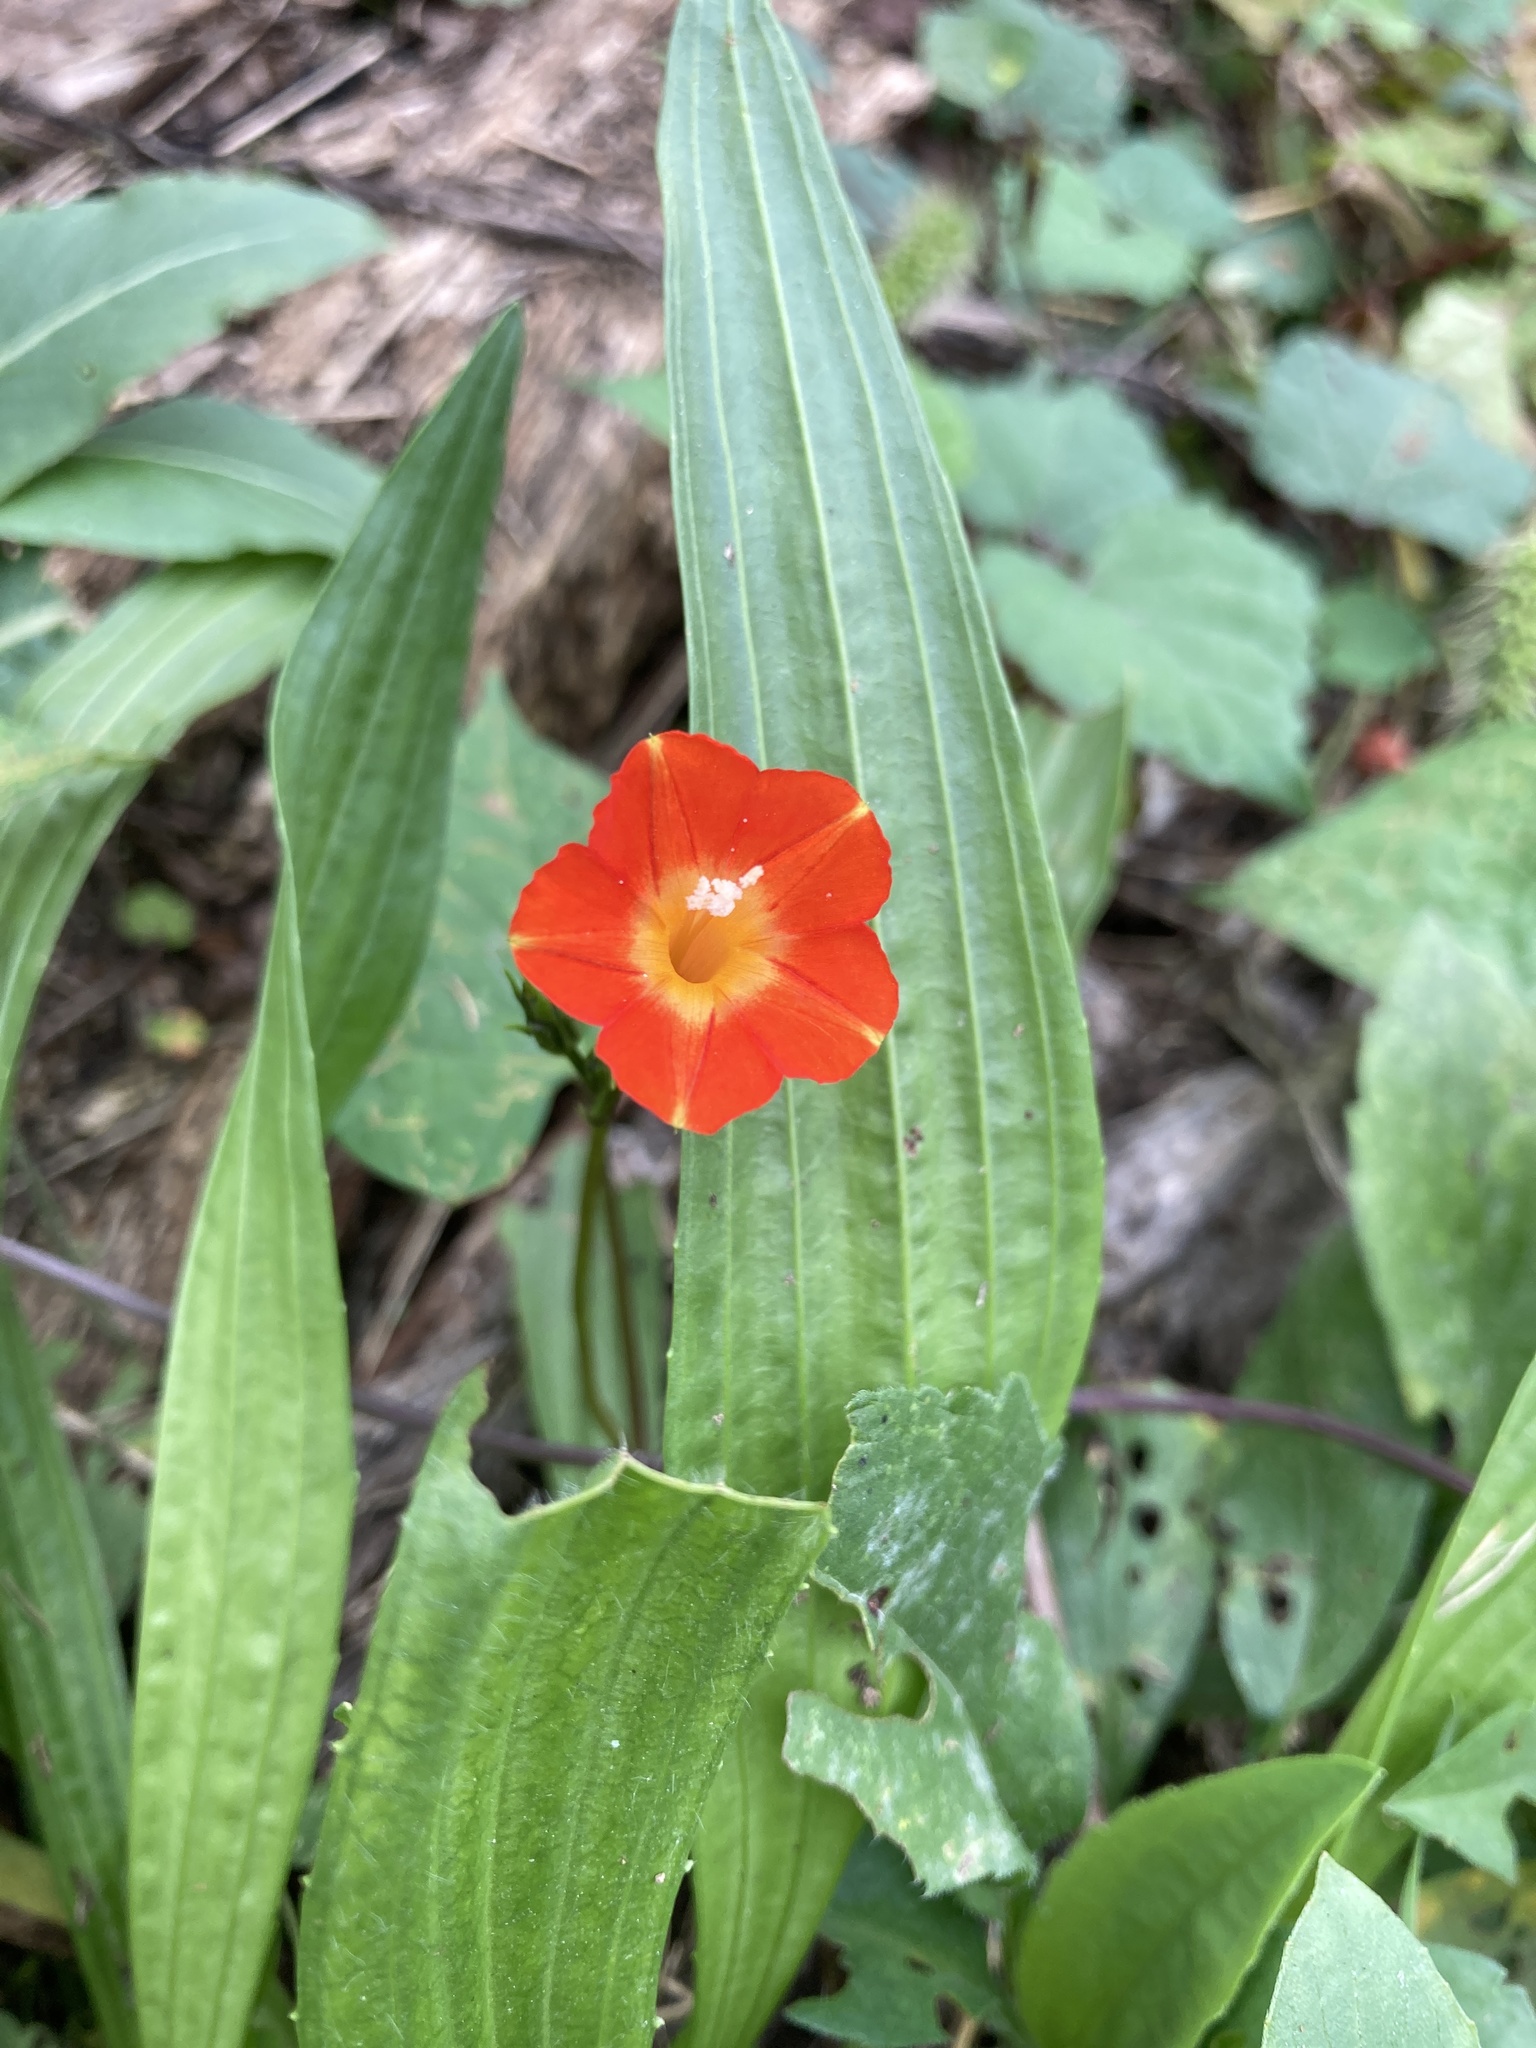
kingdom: Plantae
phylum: Tracheophyta
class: Magnoliopsida
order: Solanales
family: Convolvulaceae
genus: Ipomoea
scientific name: Ipomoea coccinea
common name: Red morning-glory
